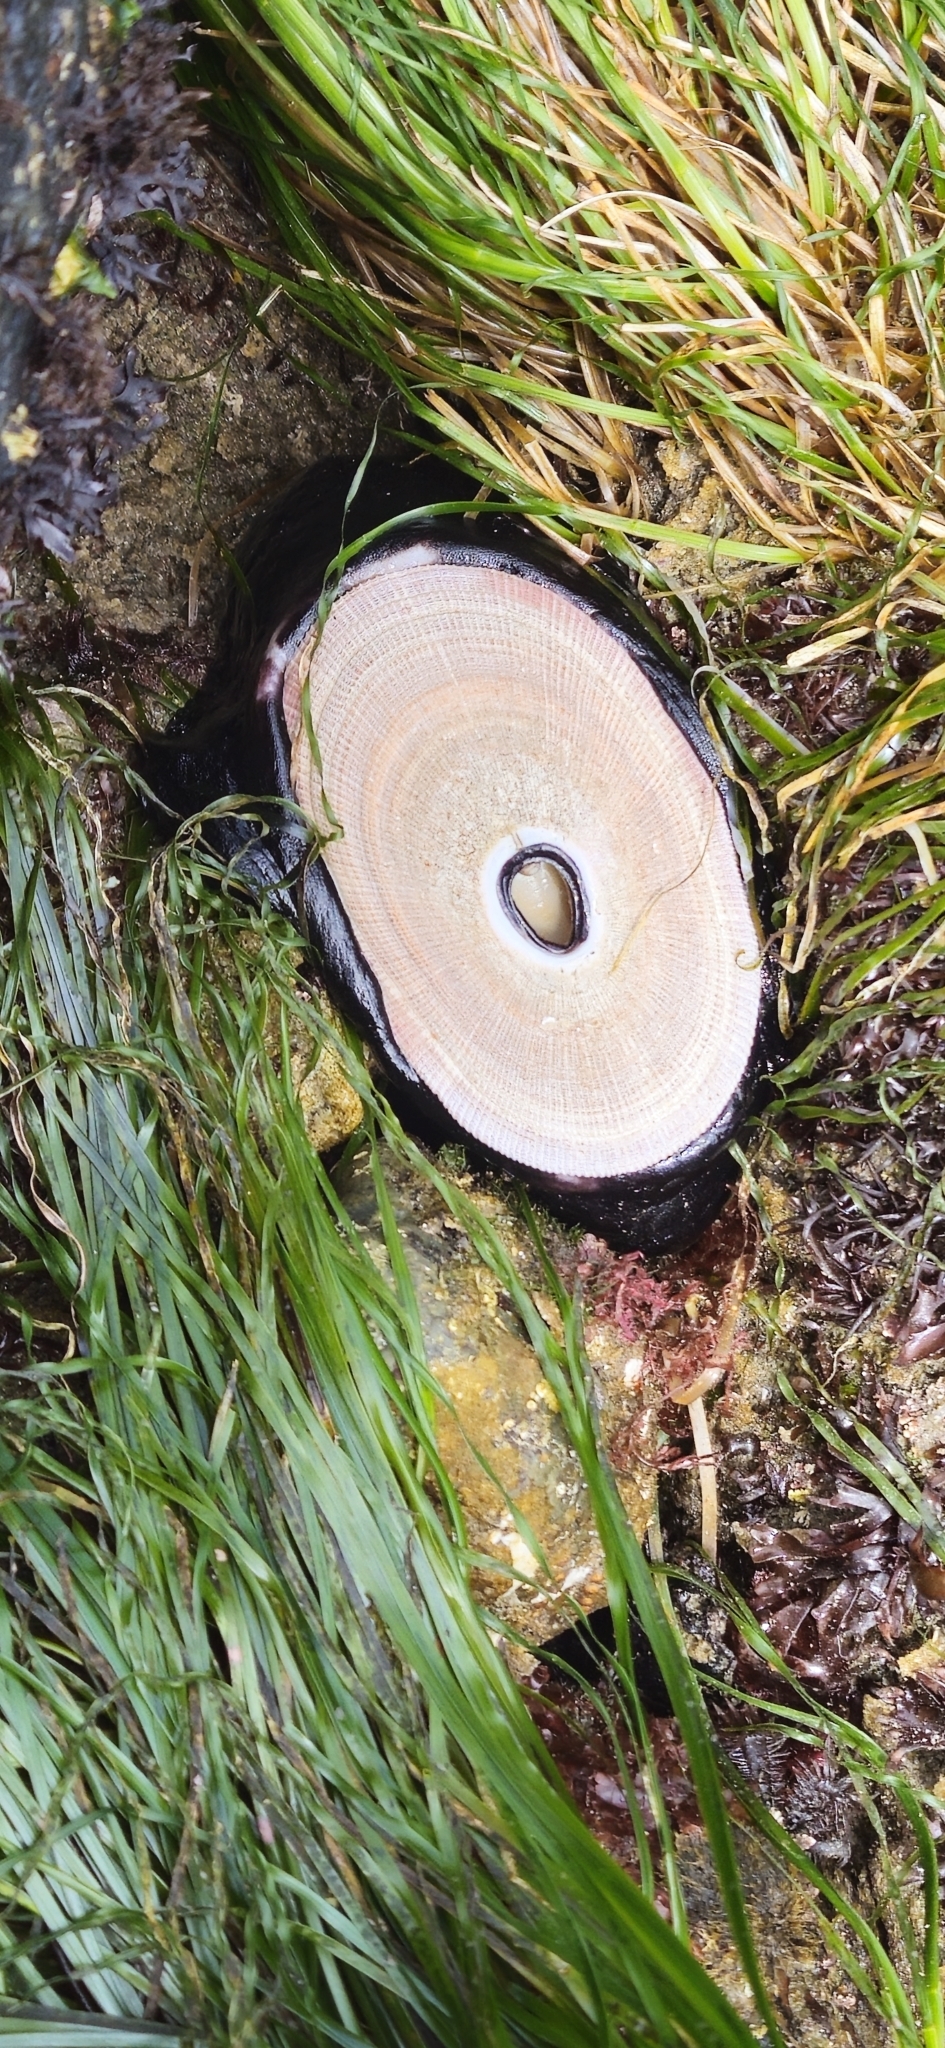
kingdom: Animalia
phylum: Mollusca
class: Gastropoda
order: Lepetellida
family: Fissurellidae
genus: Megathura
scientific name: Megathura crenulata
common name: Giant keyhole limpet
